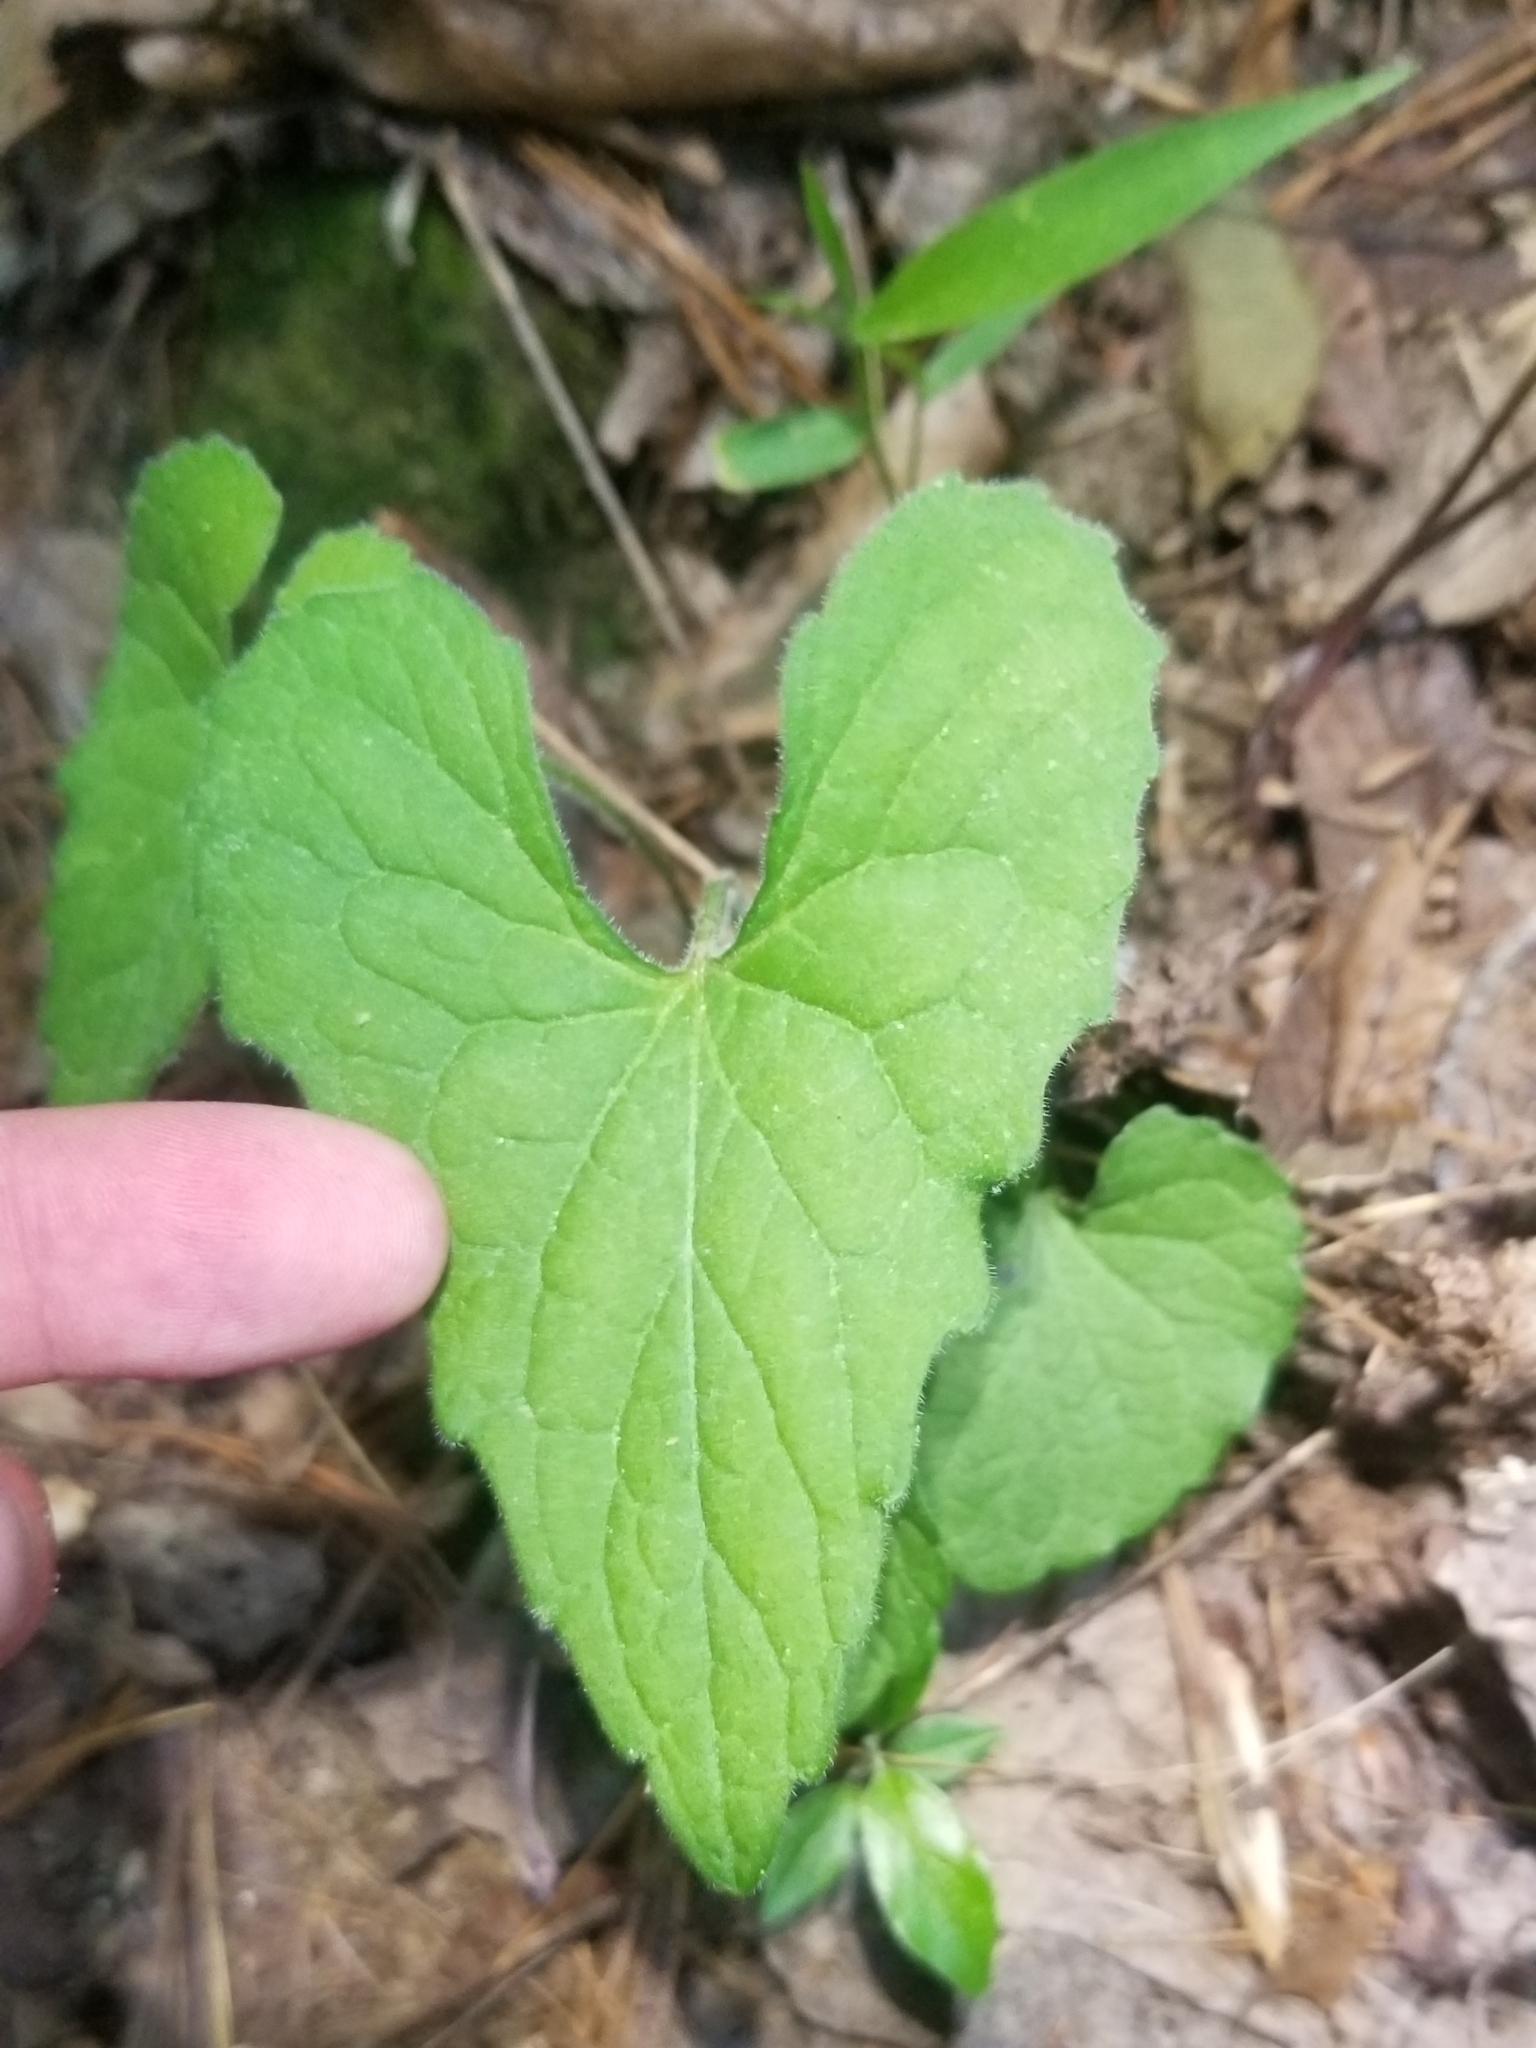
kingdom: Plantae
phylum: Tracheophyta
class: Magnoliopsida
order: Malpighiales
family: Violaceae
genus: Viola
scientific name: Viola sororia
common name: Dooryard violet
